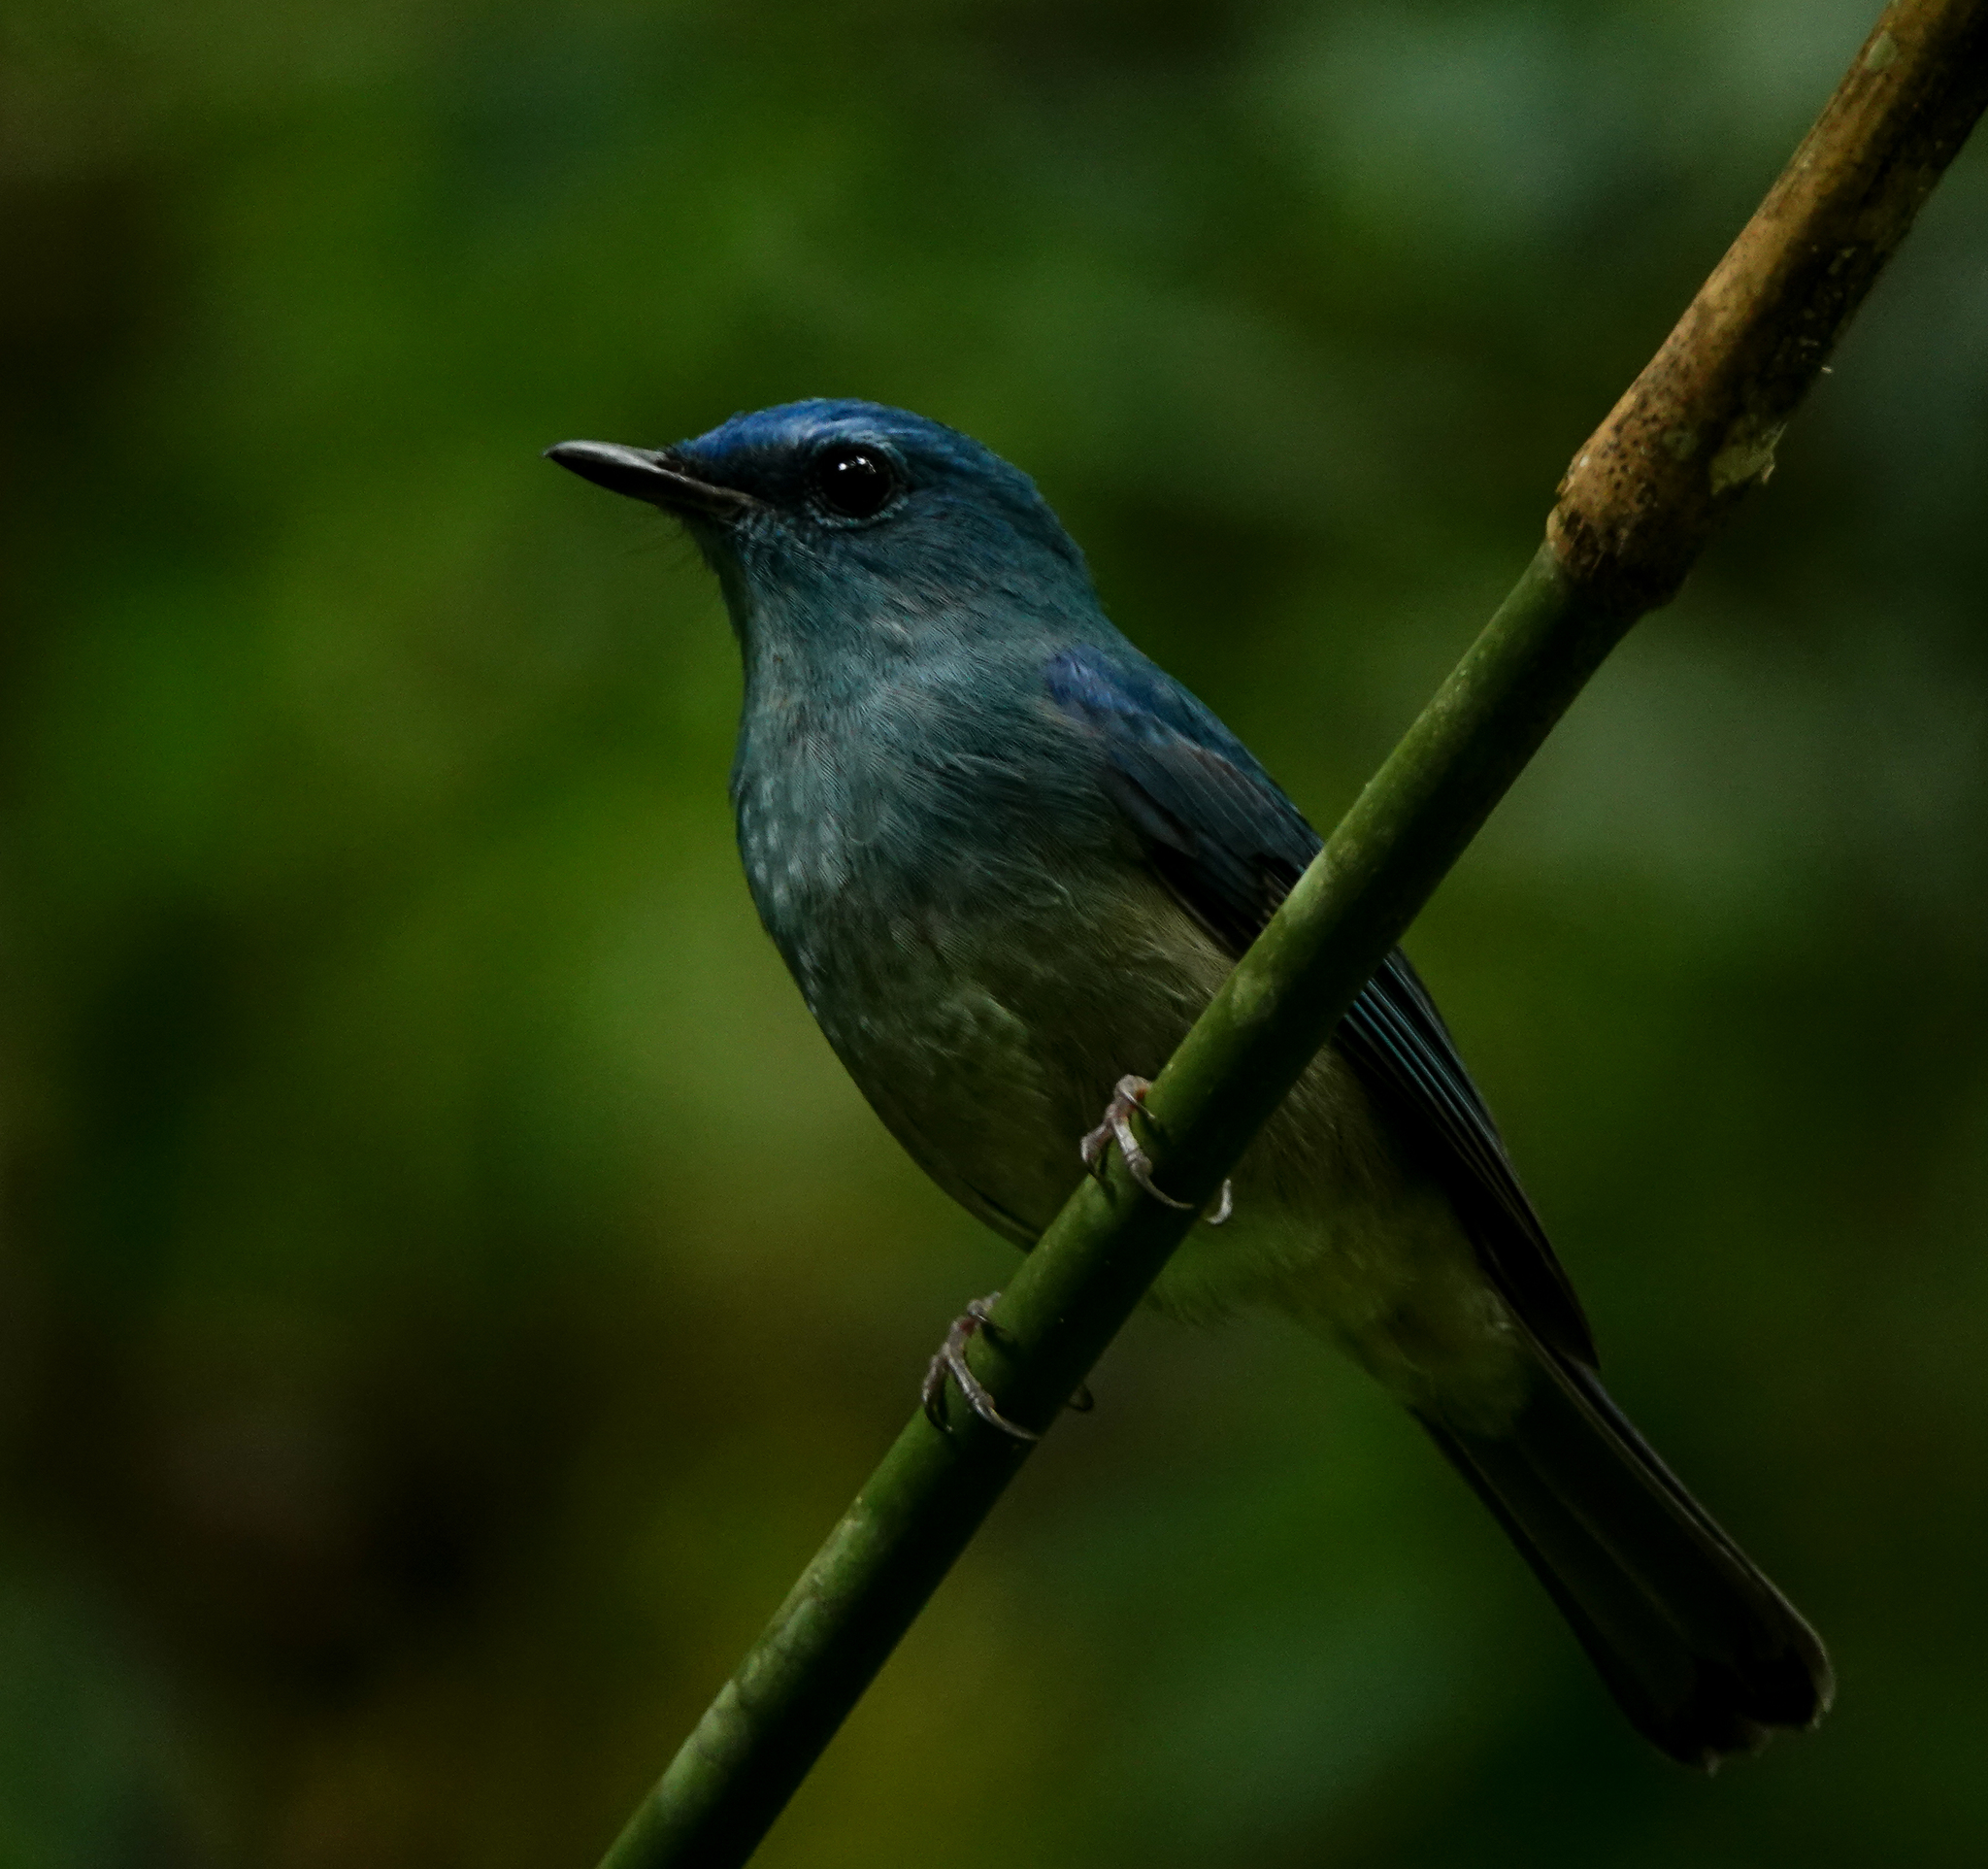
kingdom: Animalia
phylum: Chordata
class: Aves
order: Passeriformes
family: Muscicapidae
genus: Cyornis
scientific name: Cyornis unicolor
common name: Pale blue flycatcher
